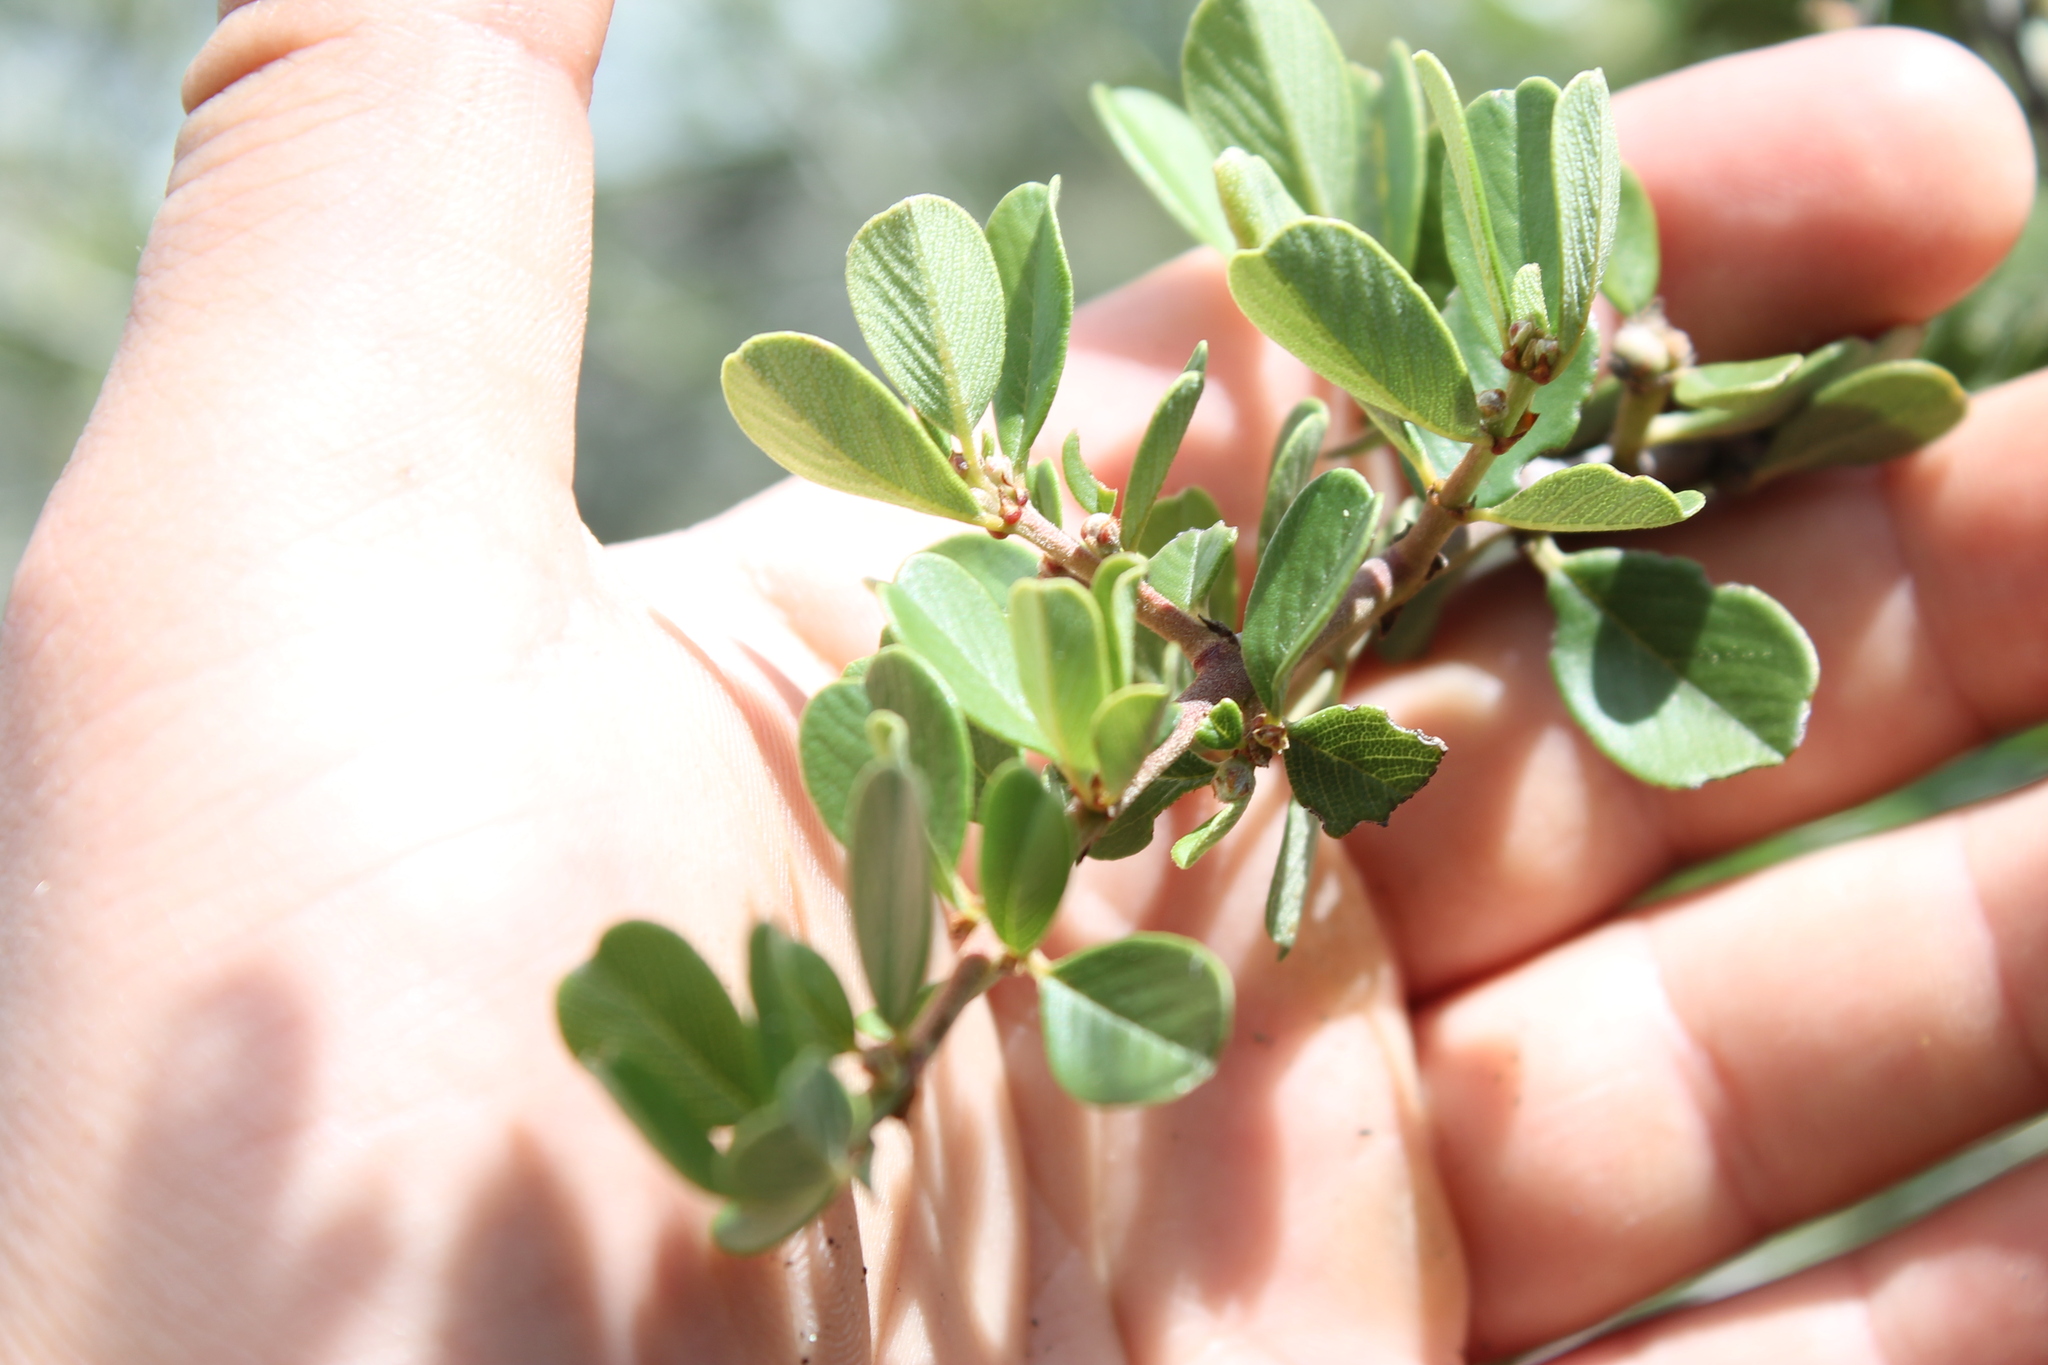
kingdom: Plantae
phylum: Tracheophyta
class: Magnoliopsida
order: Rosales
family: Rhamnaceae
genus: Ceanothus
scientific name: Ceanothus cuneatus
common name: Cuneate ceanothus
